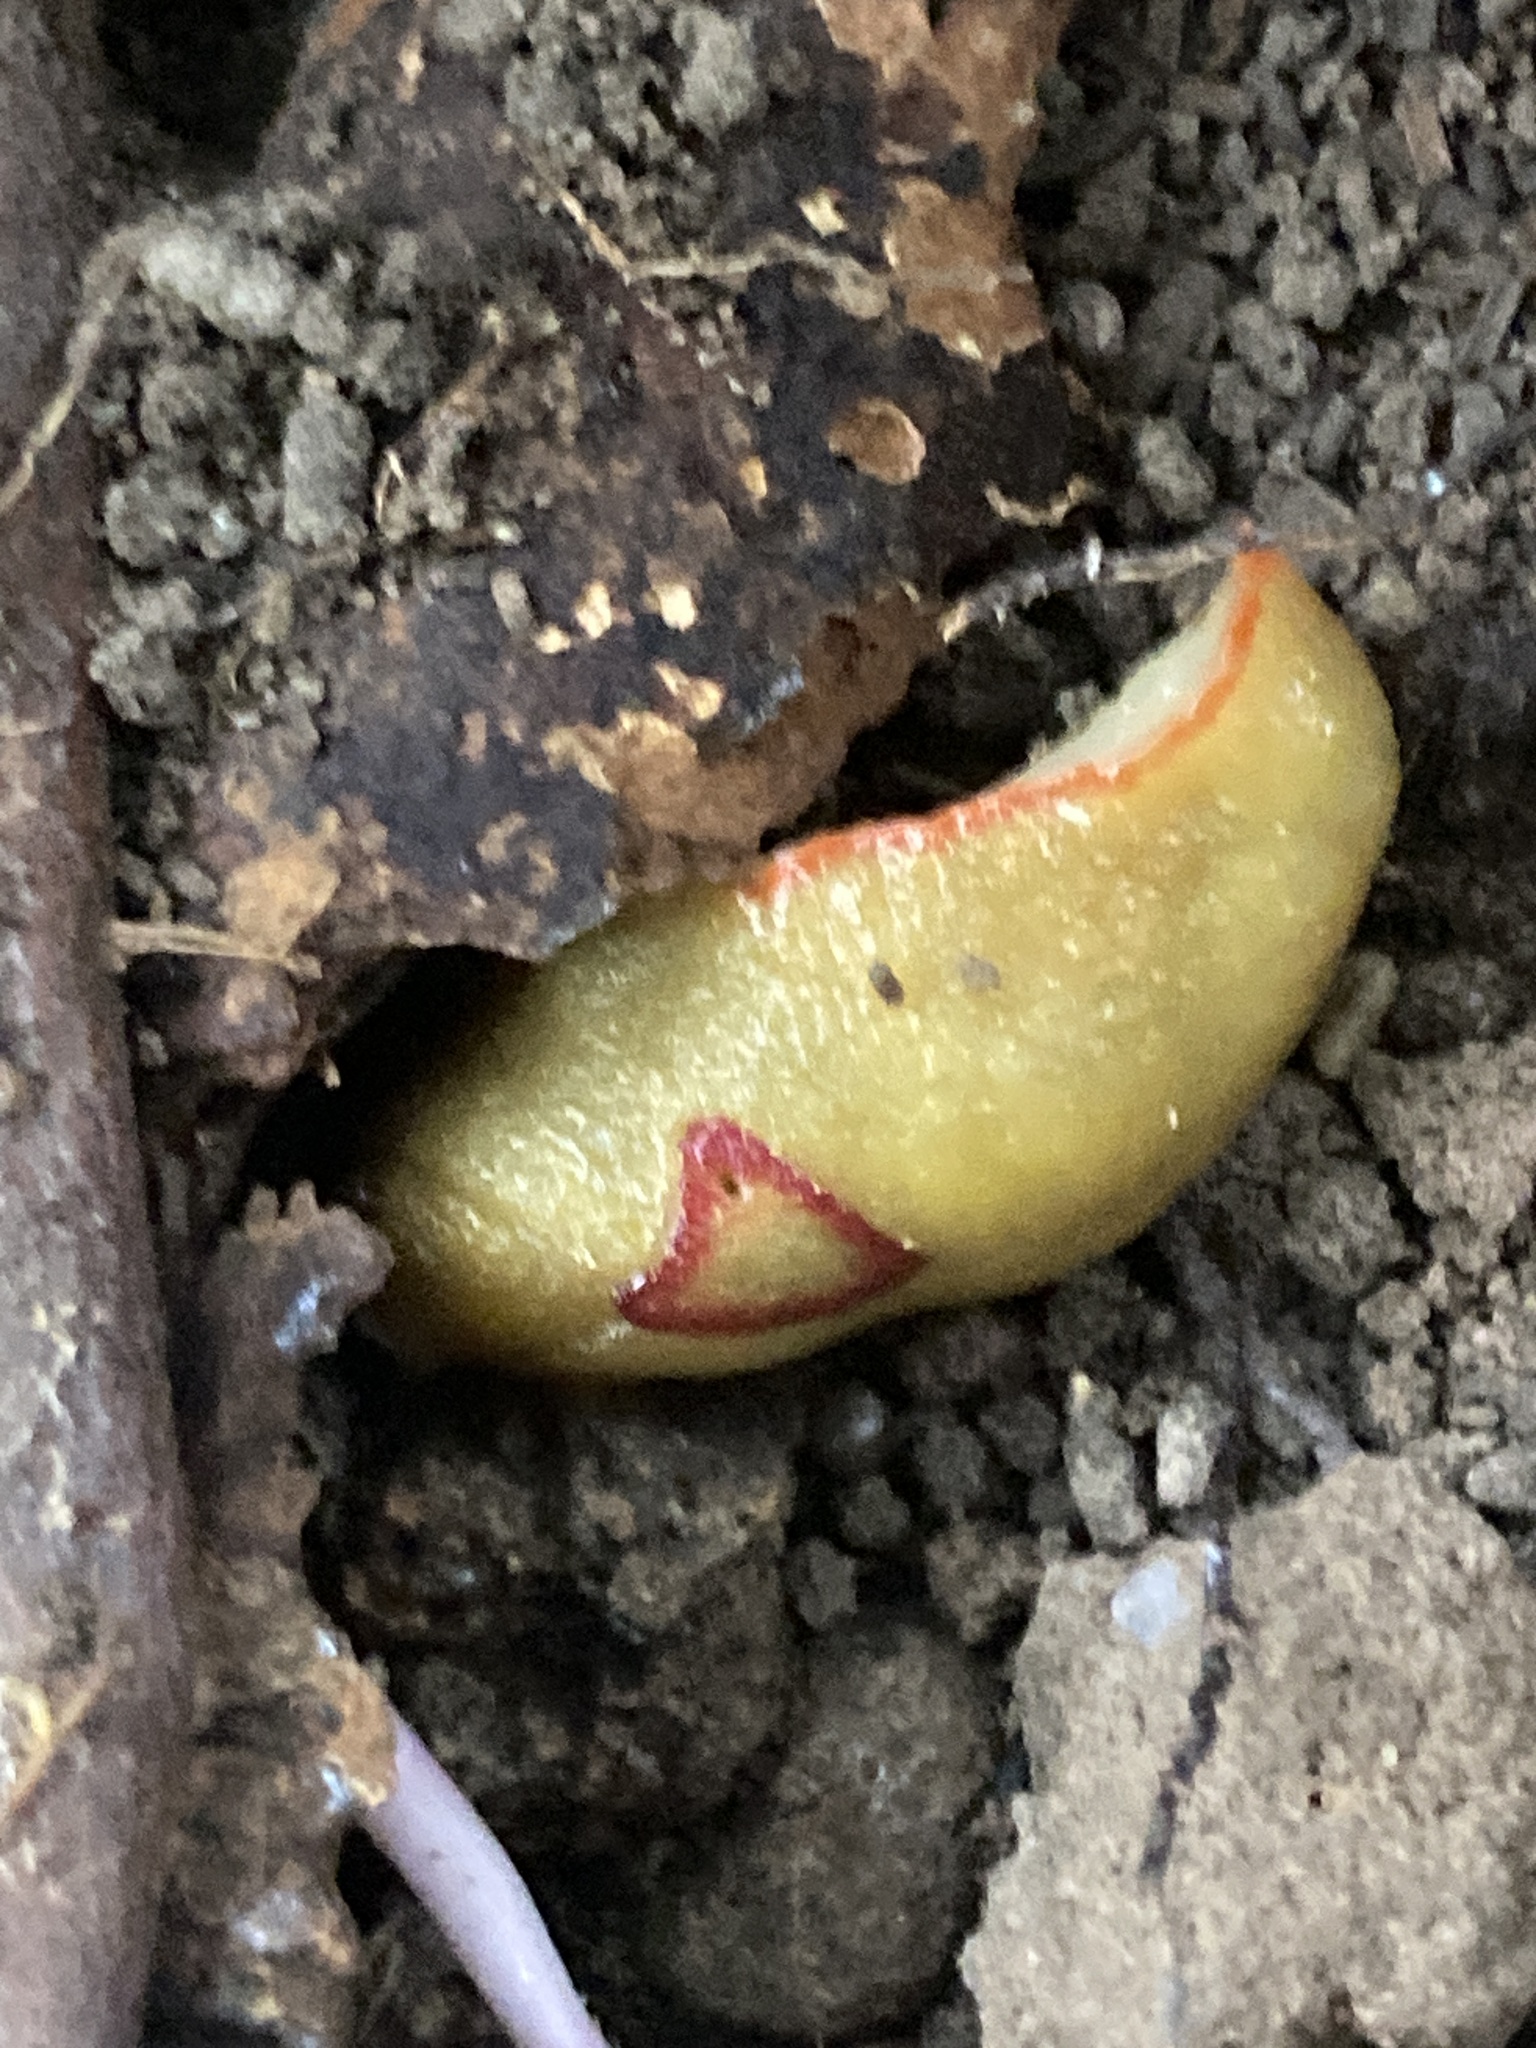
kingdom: Animalia
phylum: Mollusca
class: Gastropoda
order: Stylommatophora
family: Athoracophoridae
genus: Triboniophorus
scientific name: Triboniophorus graeffei
